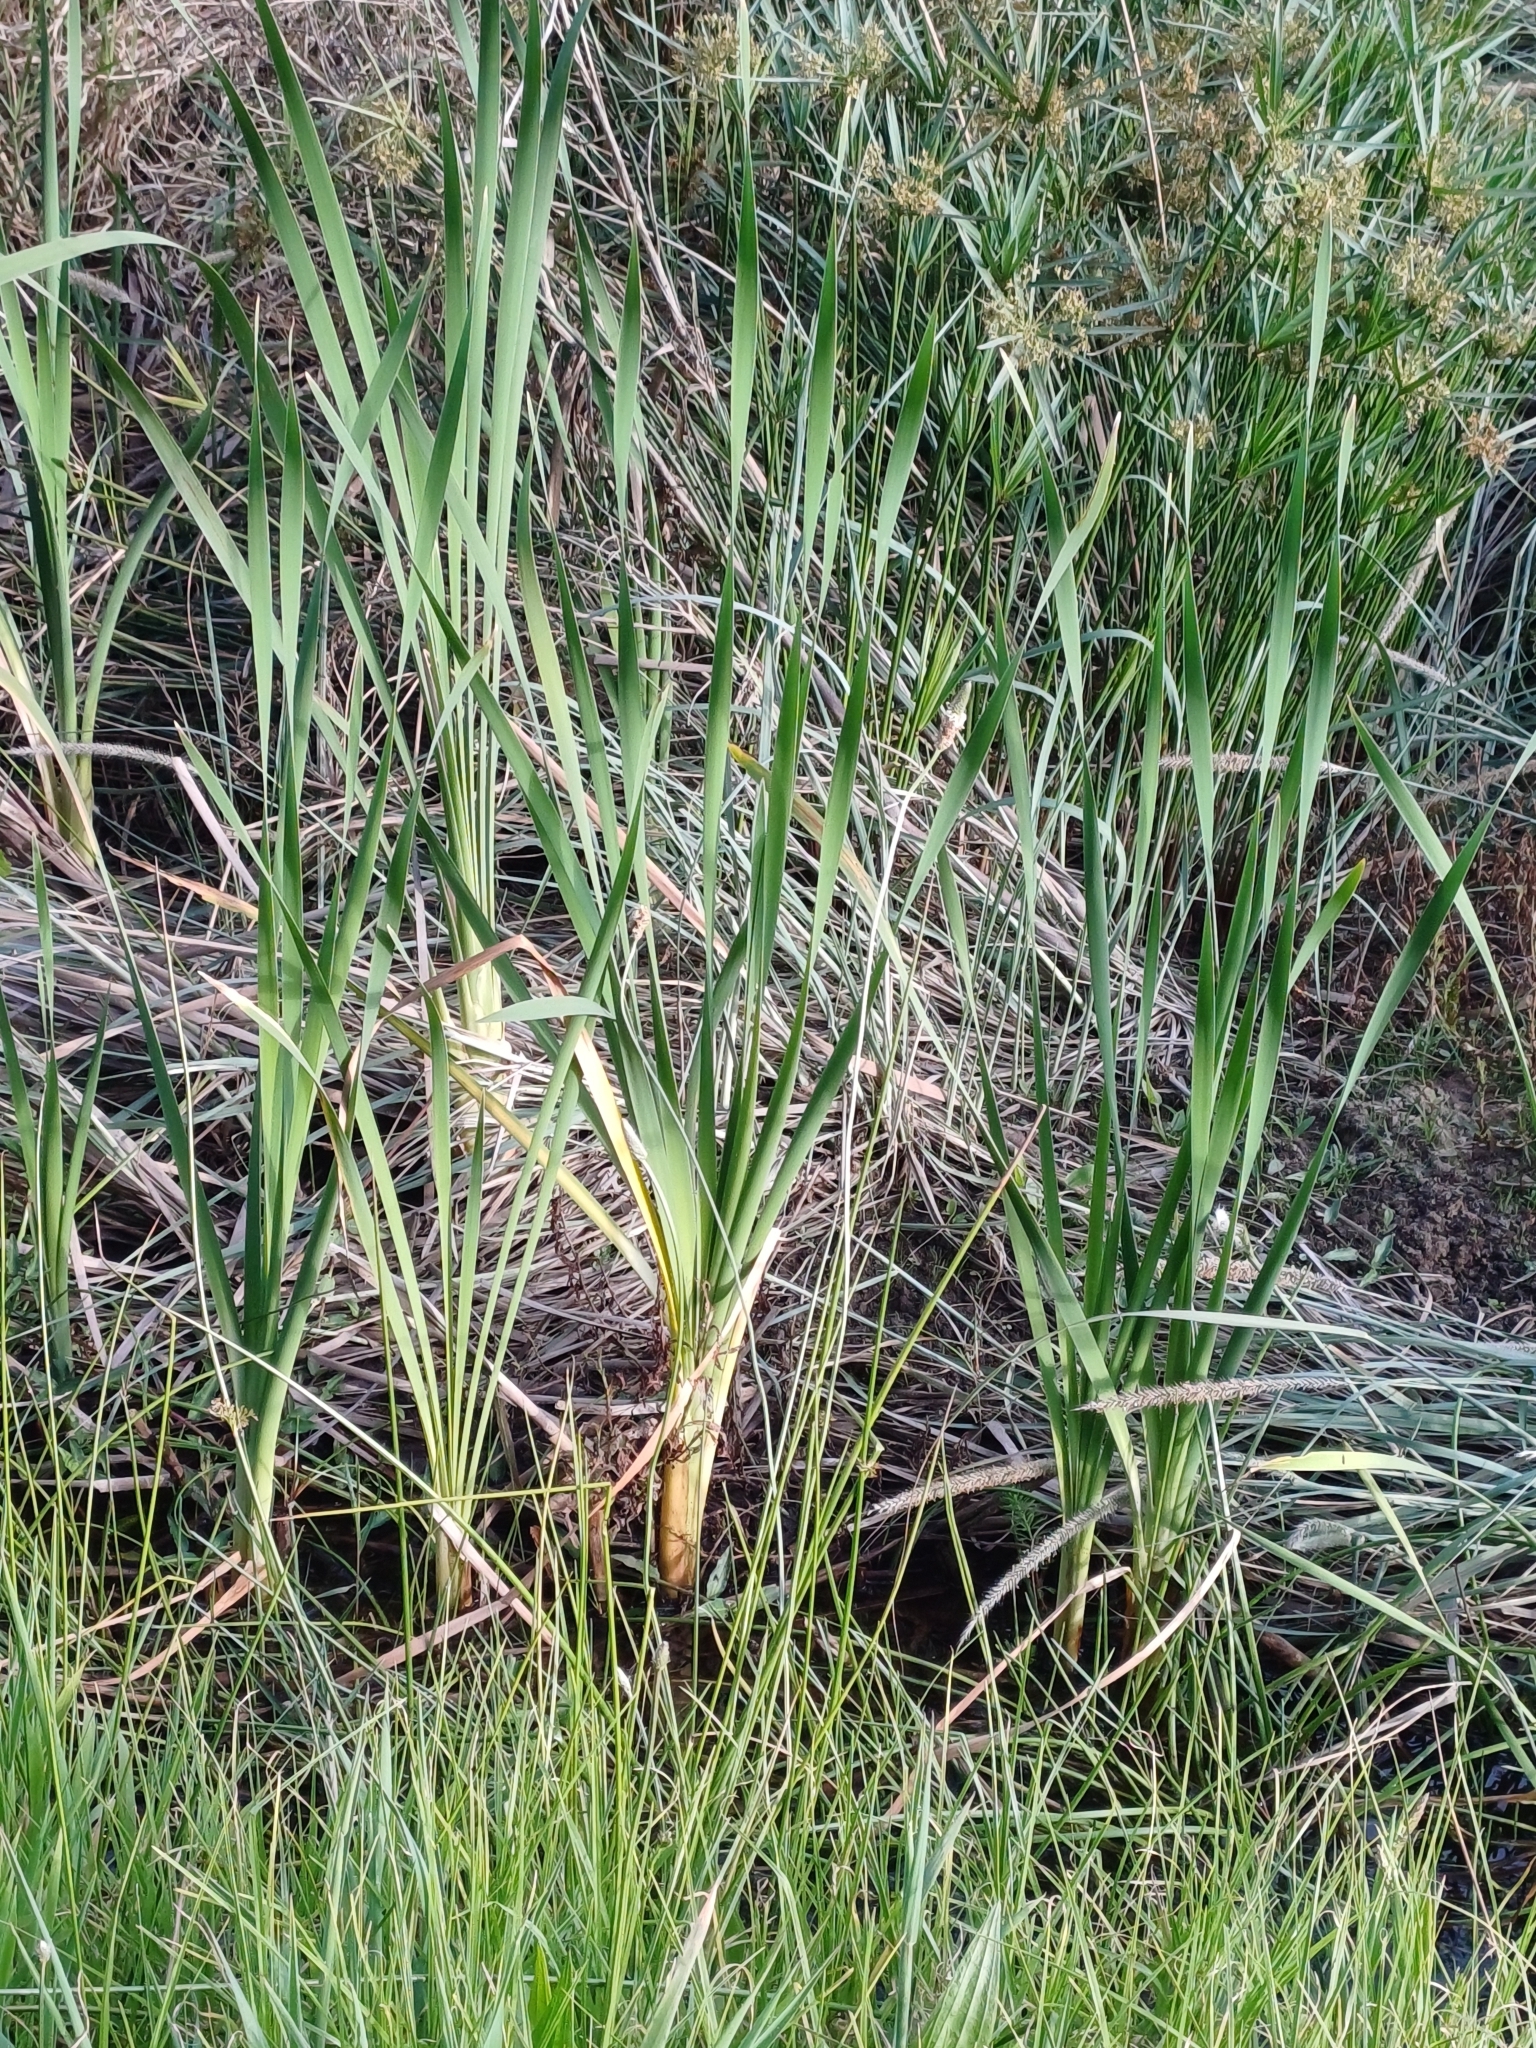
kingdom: Plantae
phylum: Tracheophyta
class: Liliopsida
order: Poales
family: Typhaceae
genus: Typha
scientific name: Typha capensis
